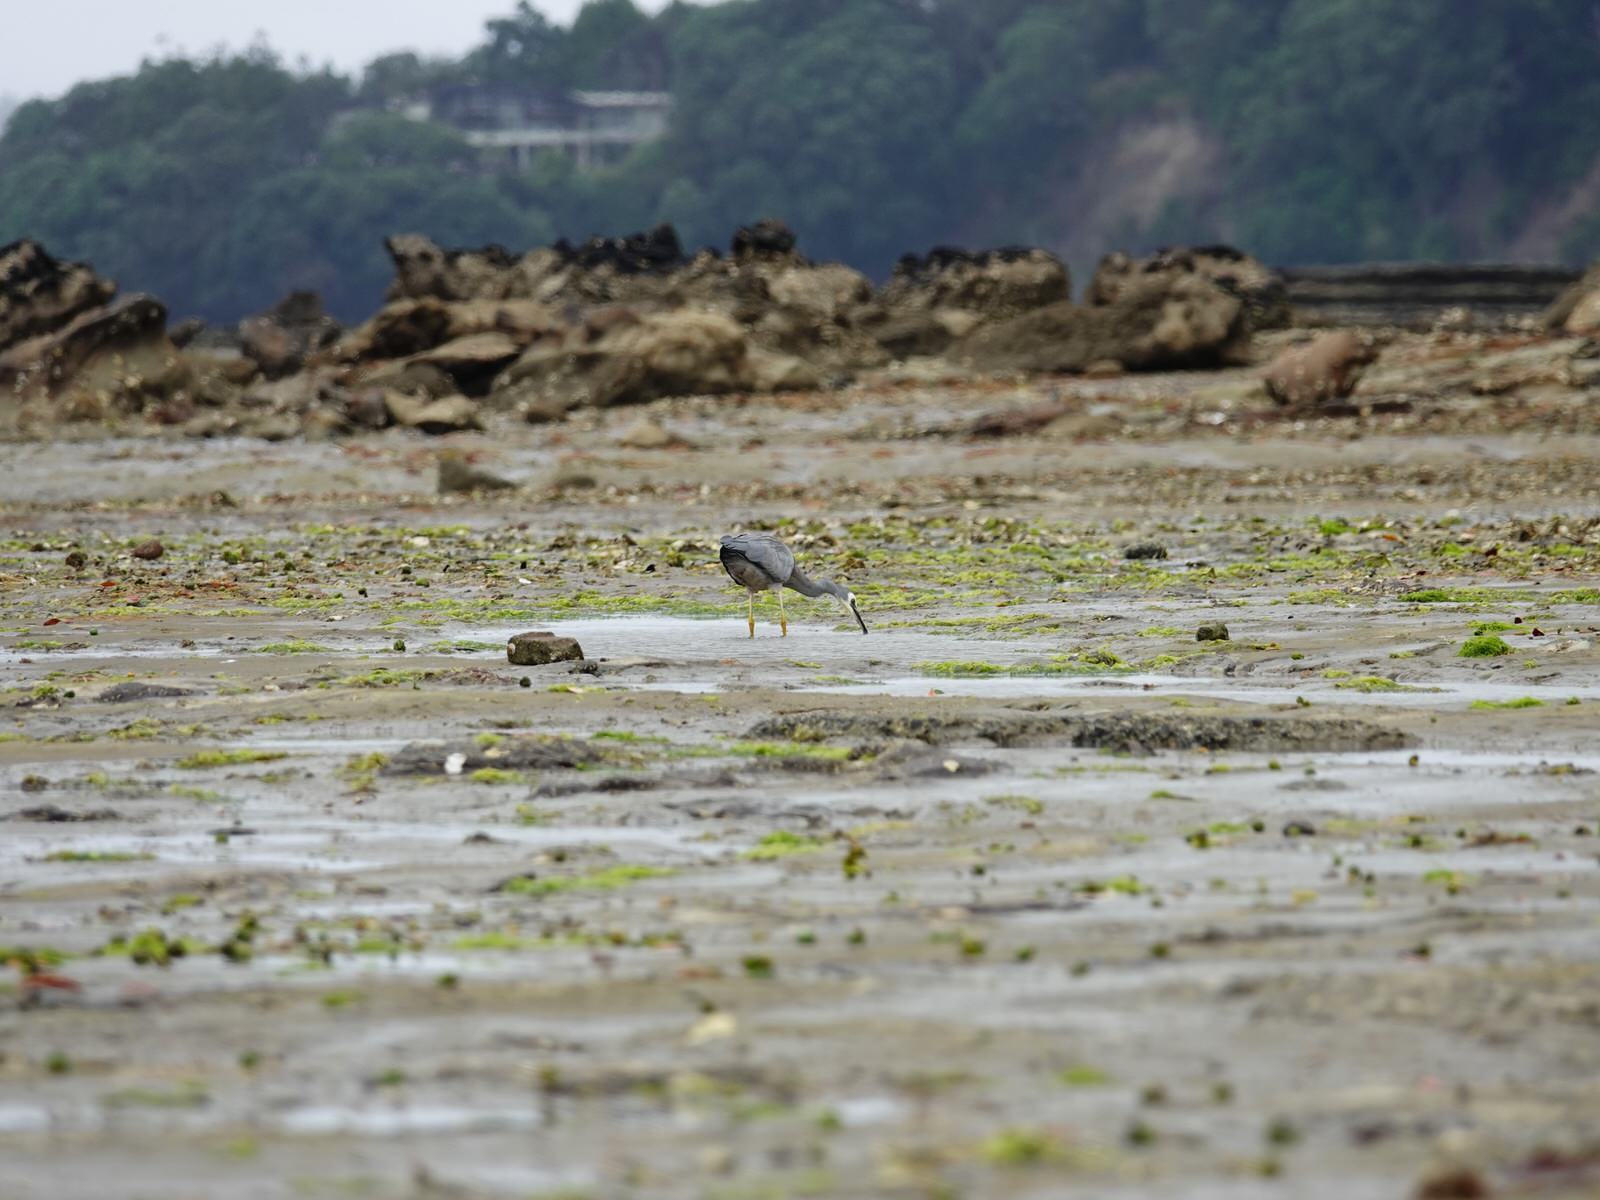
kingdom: Animalia
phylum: Chordata
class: Aves
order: Pelecaniformes
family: Ardeidae
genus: Egretta
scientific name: Egretta novaehollandiae
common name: White-faced heron
